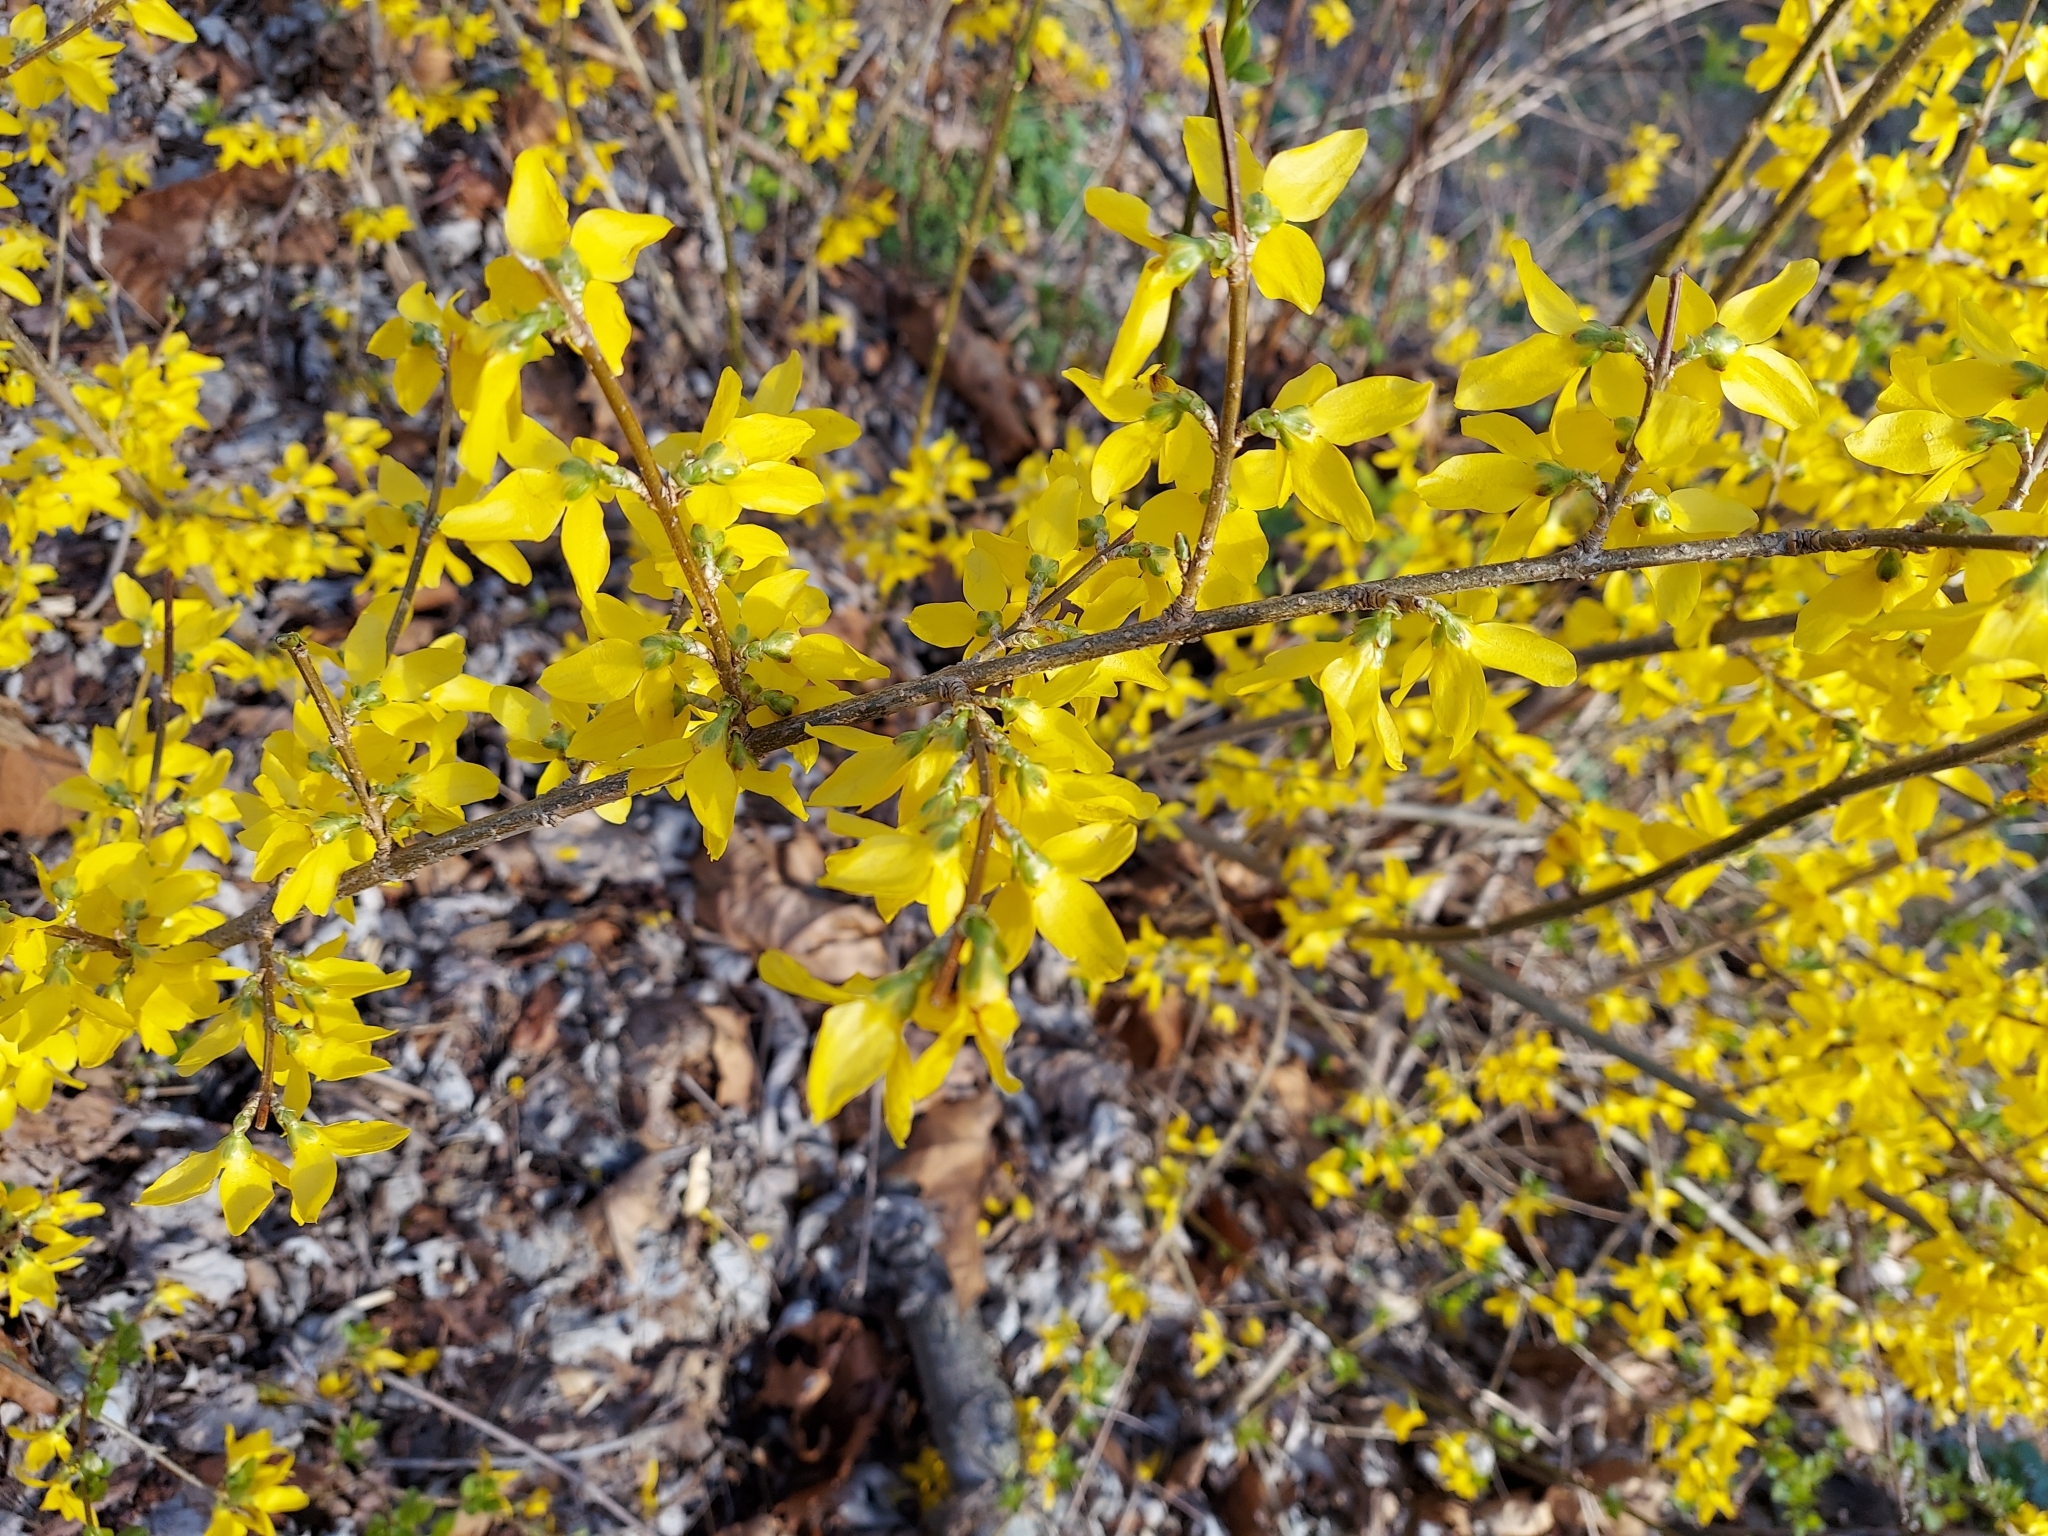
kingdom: Plantae
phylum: Tracheophyta
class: Magnoliopsida
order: Lamiales
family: Oleaceae
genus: Forsythia
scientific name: Forsythia intermedia
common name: Forsythia
